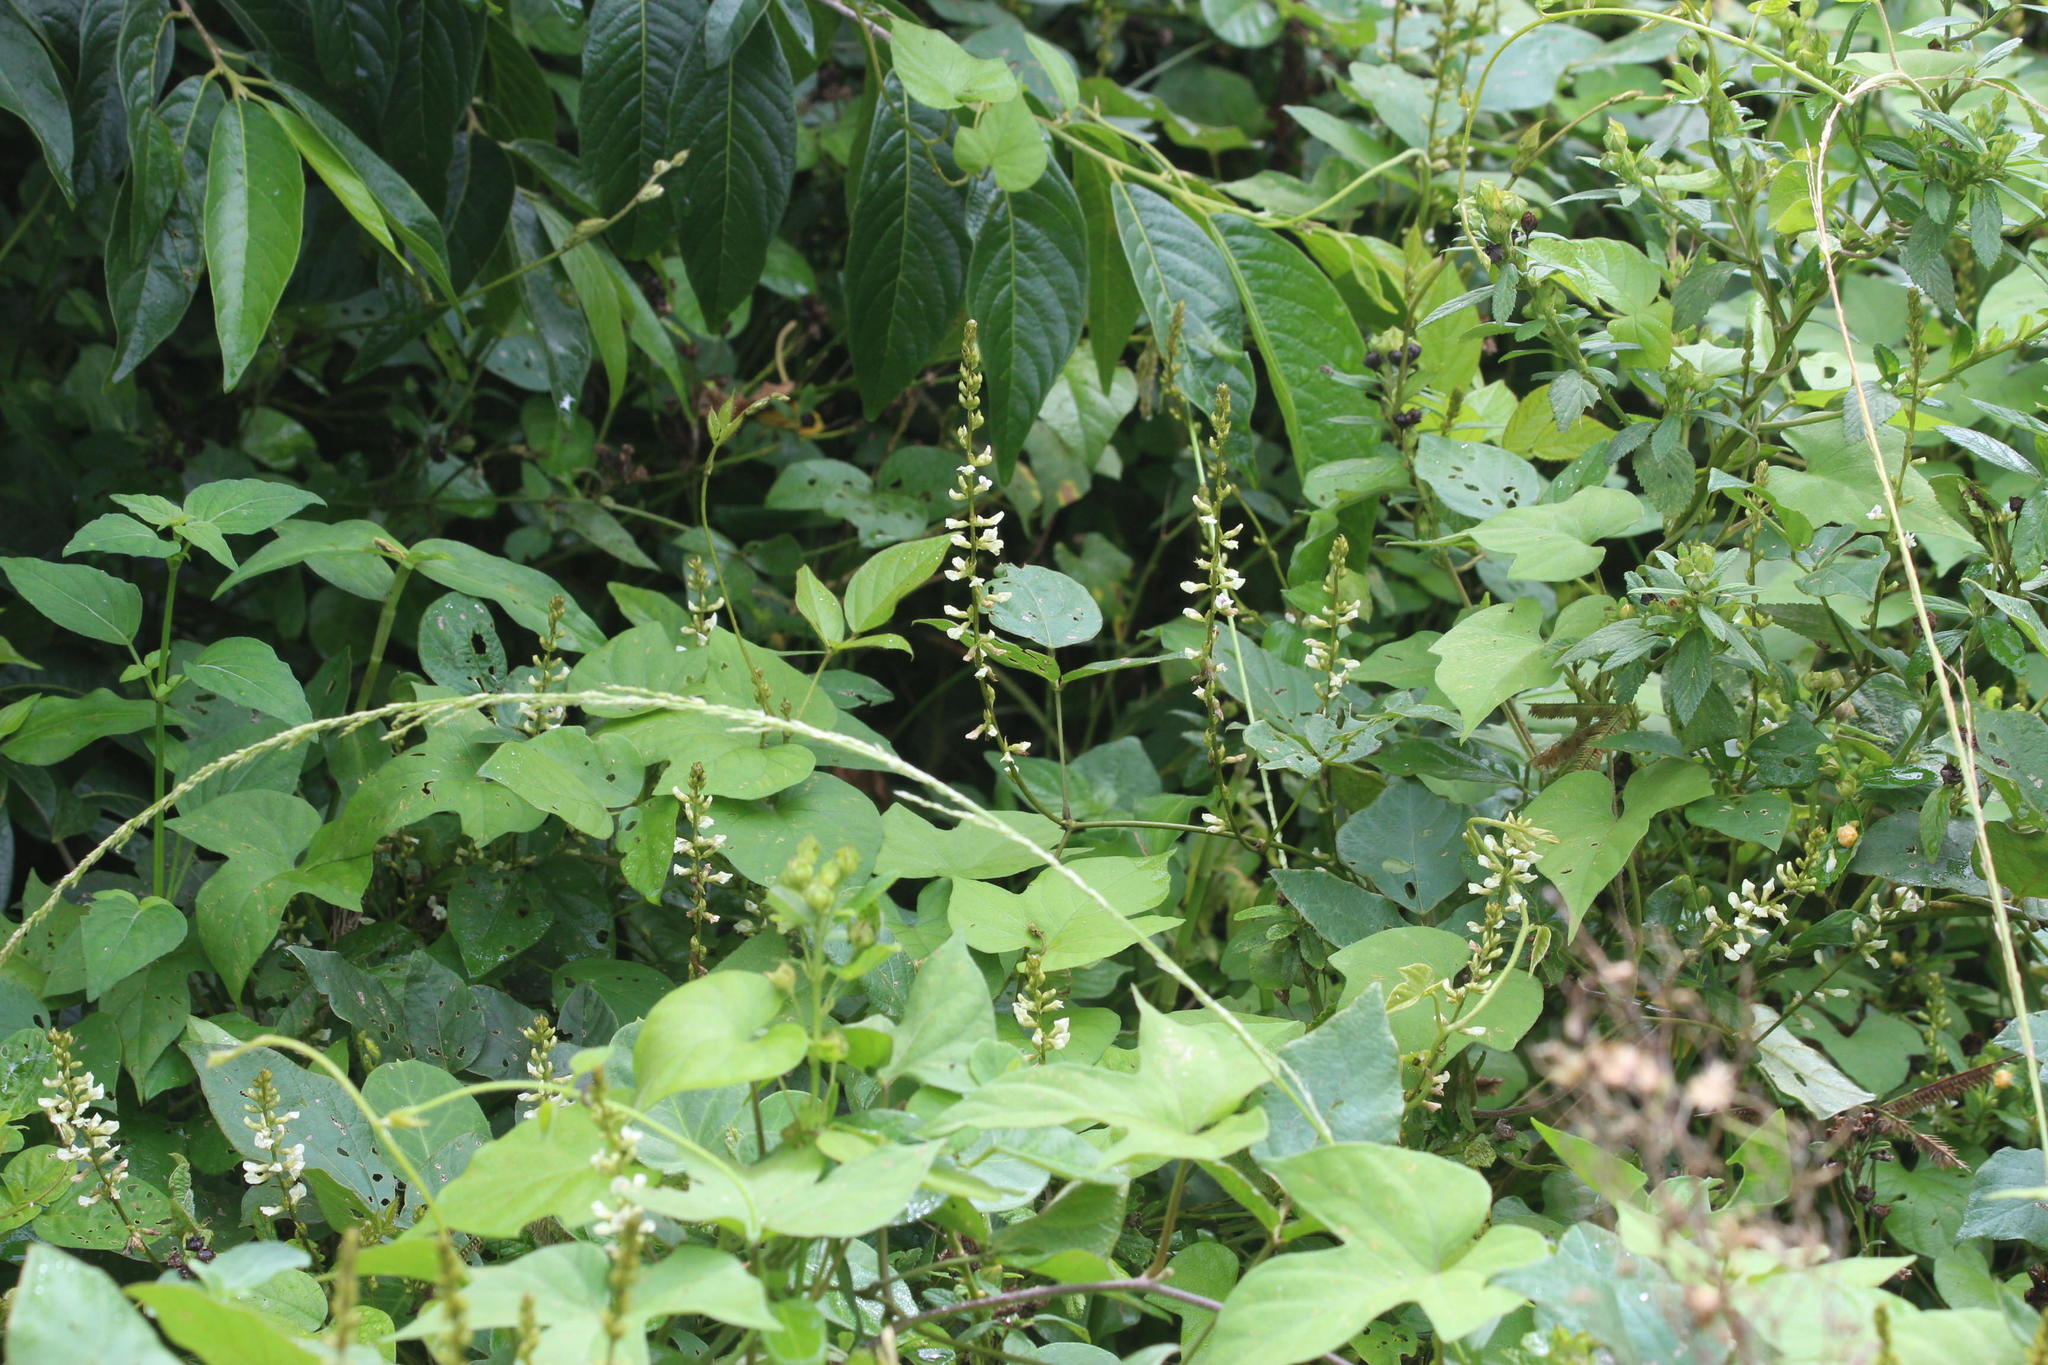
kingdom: Plantae
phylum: Tracheophyta
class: Magnoliopsida
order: Fabales
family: Fabaceae
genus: Neonotonia
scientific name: Neonotonia wightii
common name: Perennial soybean
